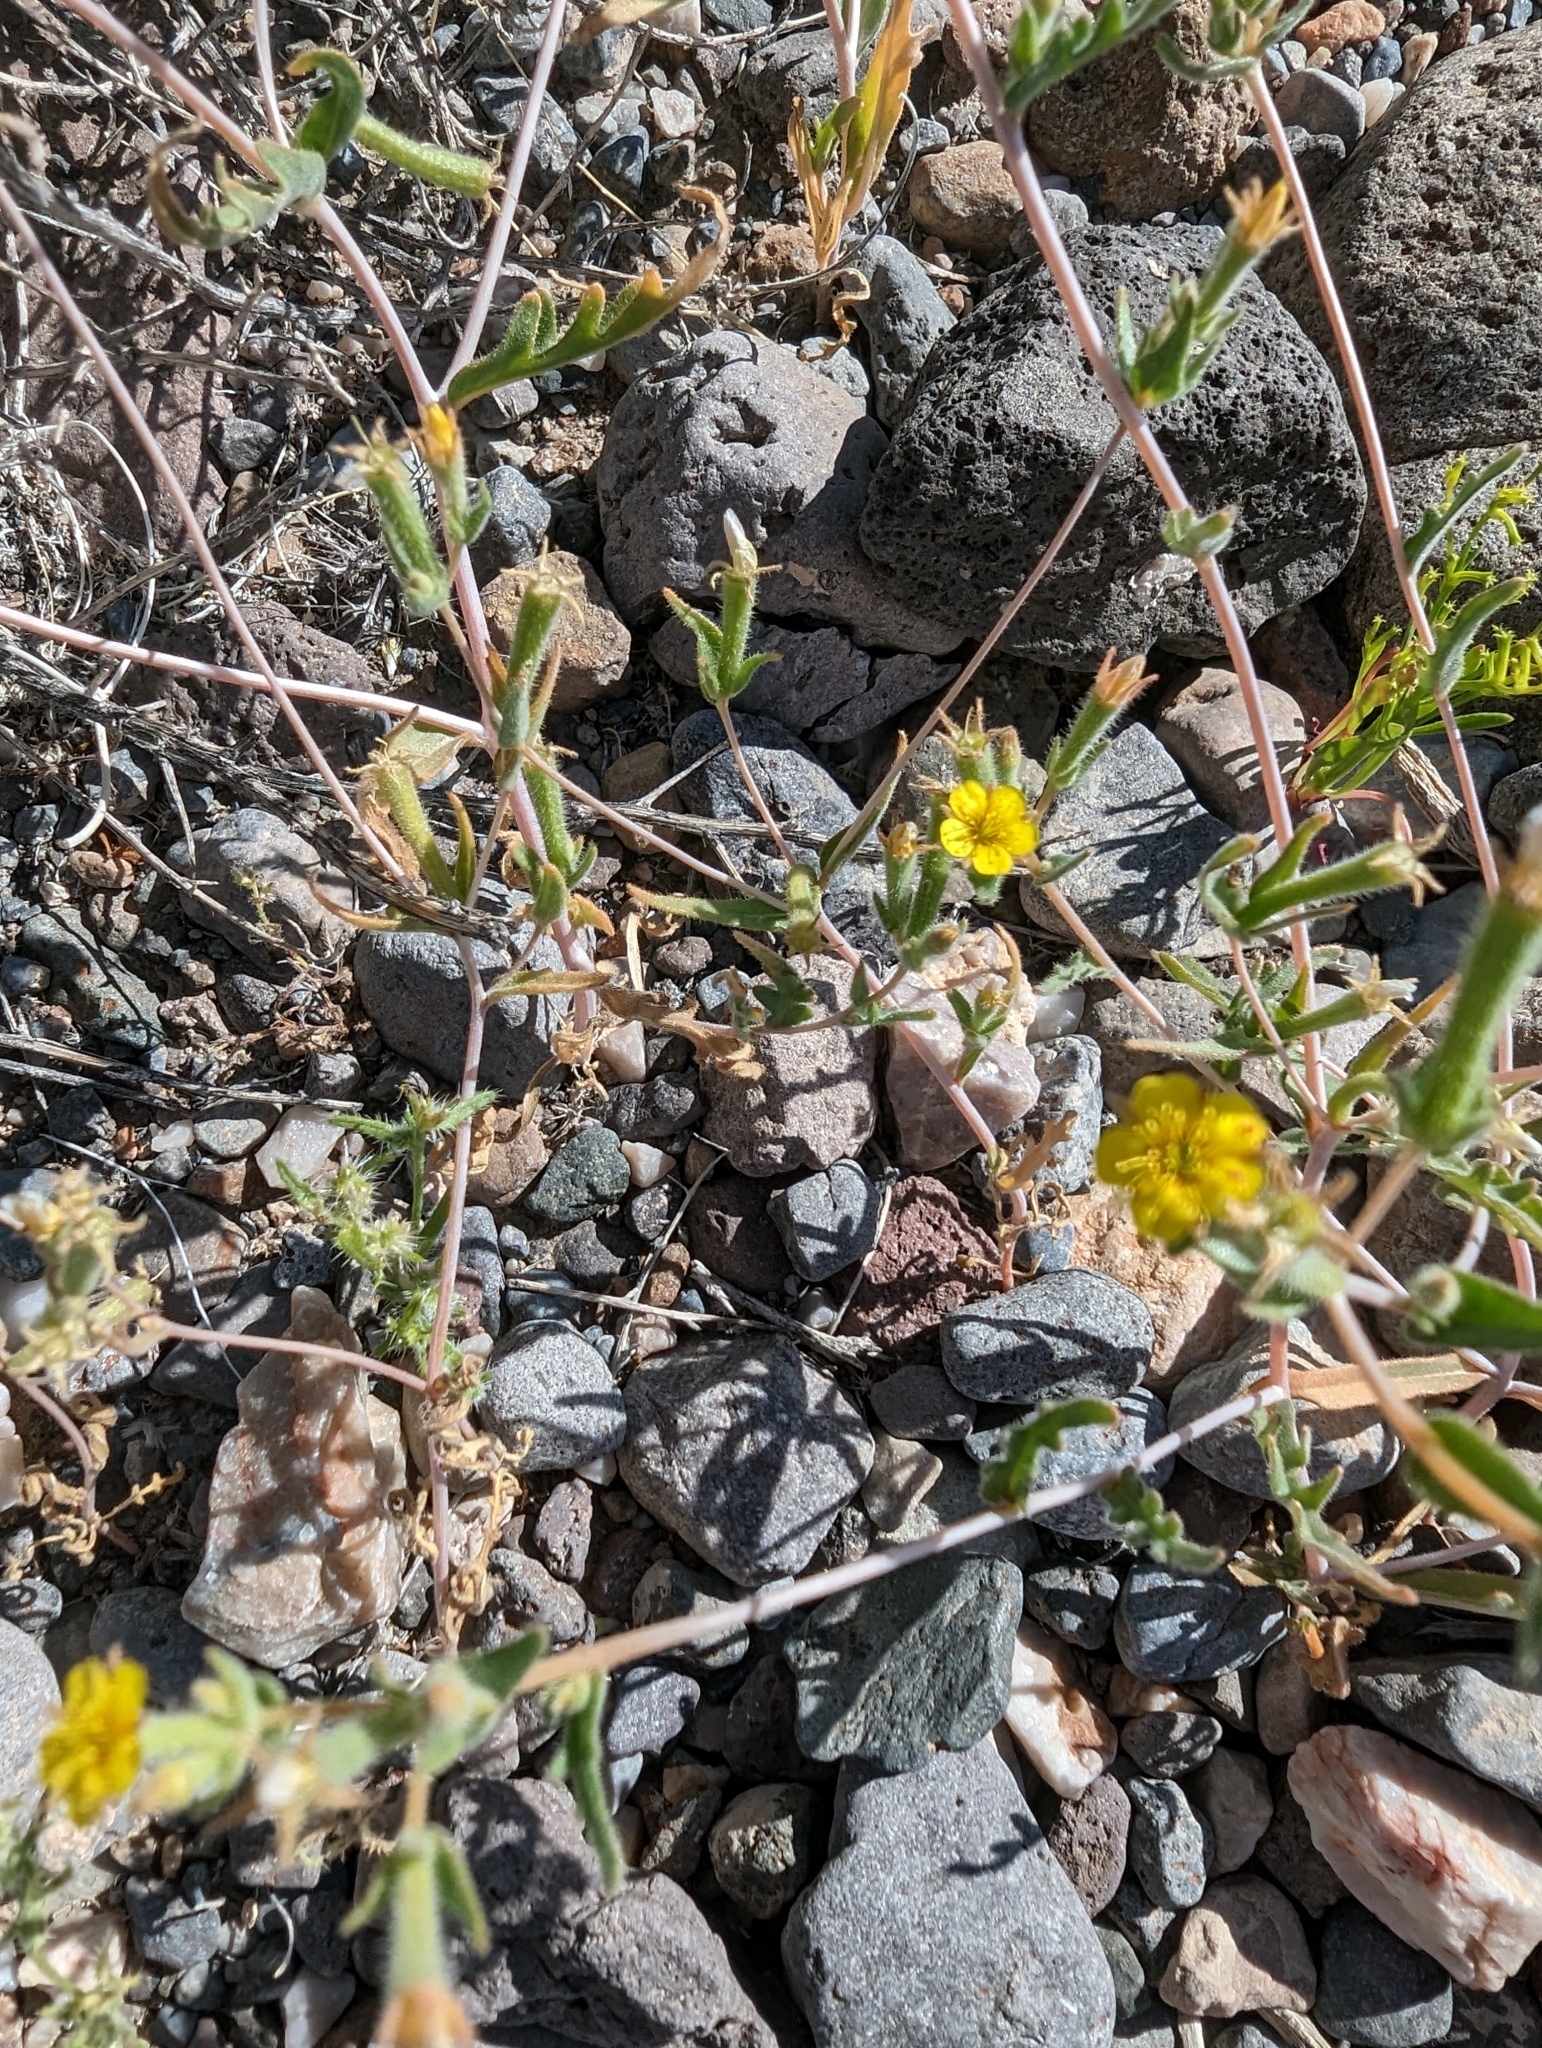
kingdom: Plantae
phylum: Tracheophyta
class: Magnoliopsida
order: Cornales
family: Loasaceae
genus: Mentzelia
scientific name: Mentzelia albicaulis
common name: White-stem blazingstar
